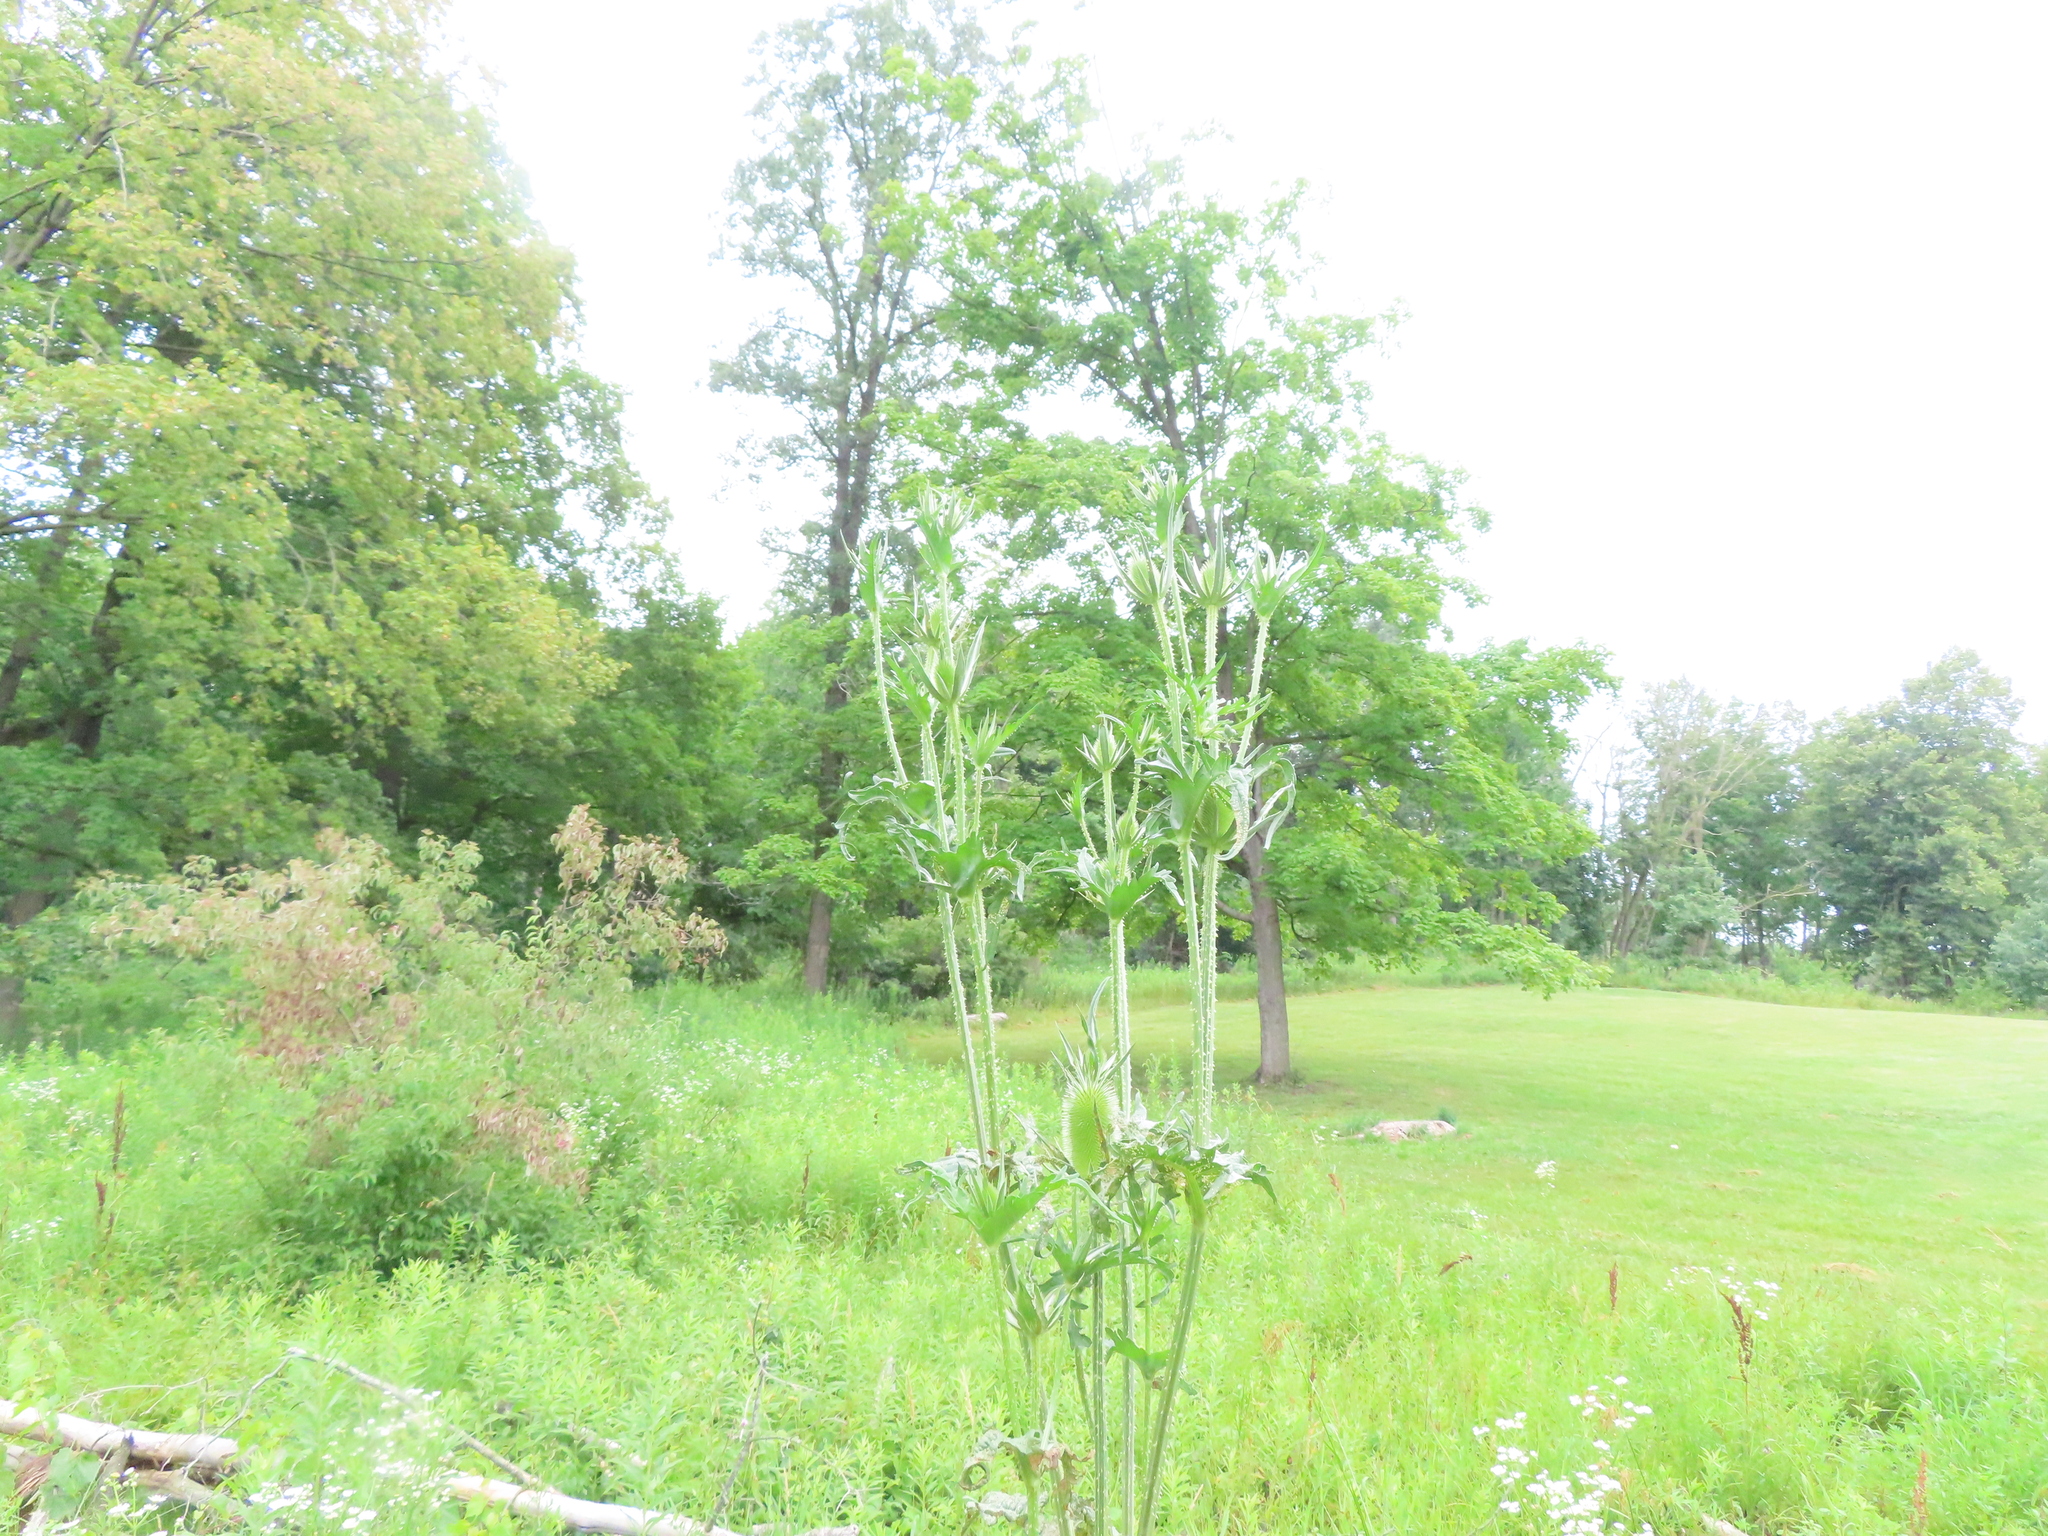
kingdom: Plantae
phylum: Tracheophyta
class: Magnoliopsida
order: Dipsacales
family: Caprifoliaceae
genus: Dipsacus
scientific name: Dipsacus laciniatus
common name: Cut-leaved teasel
